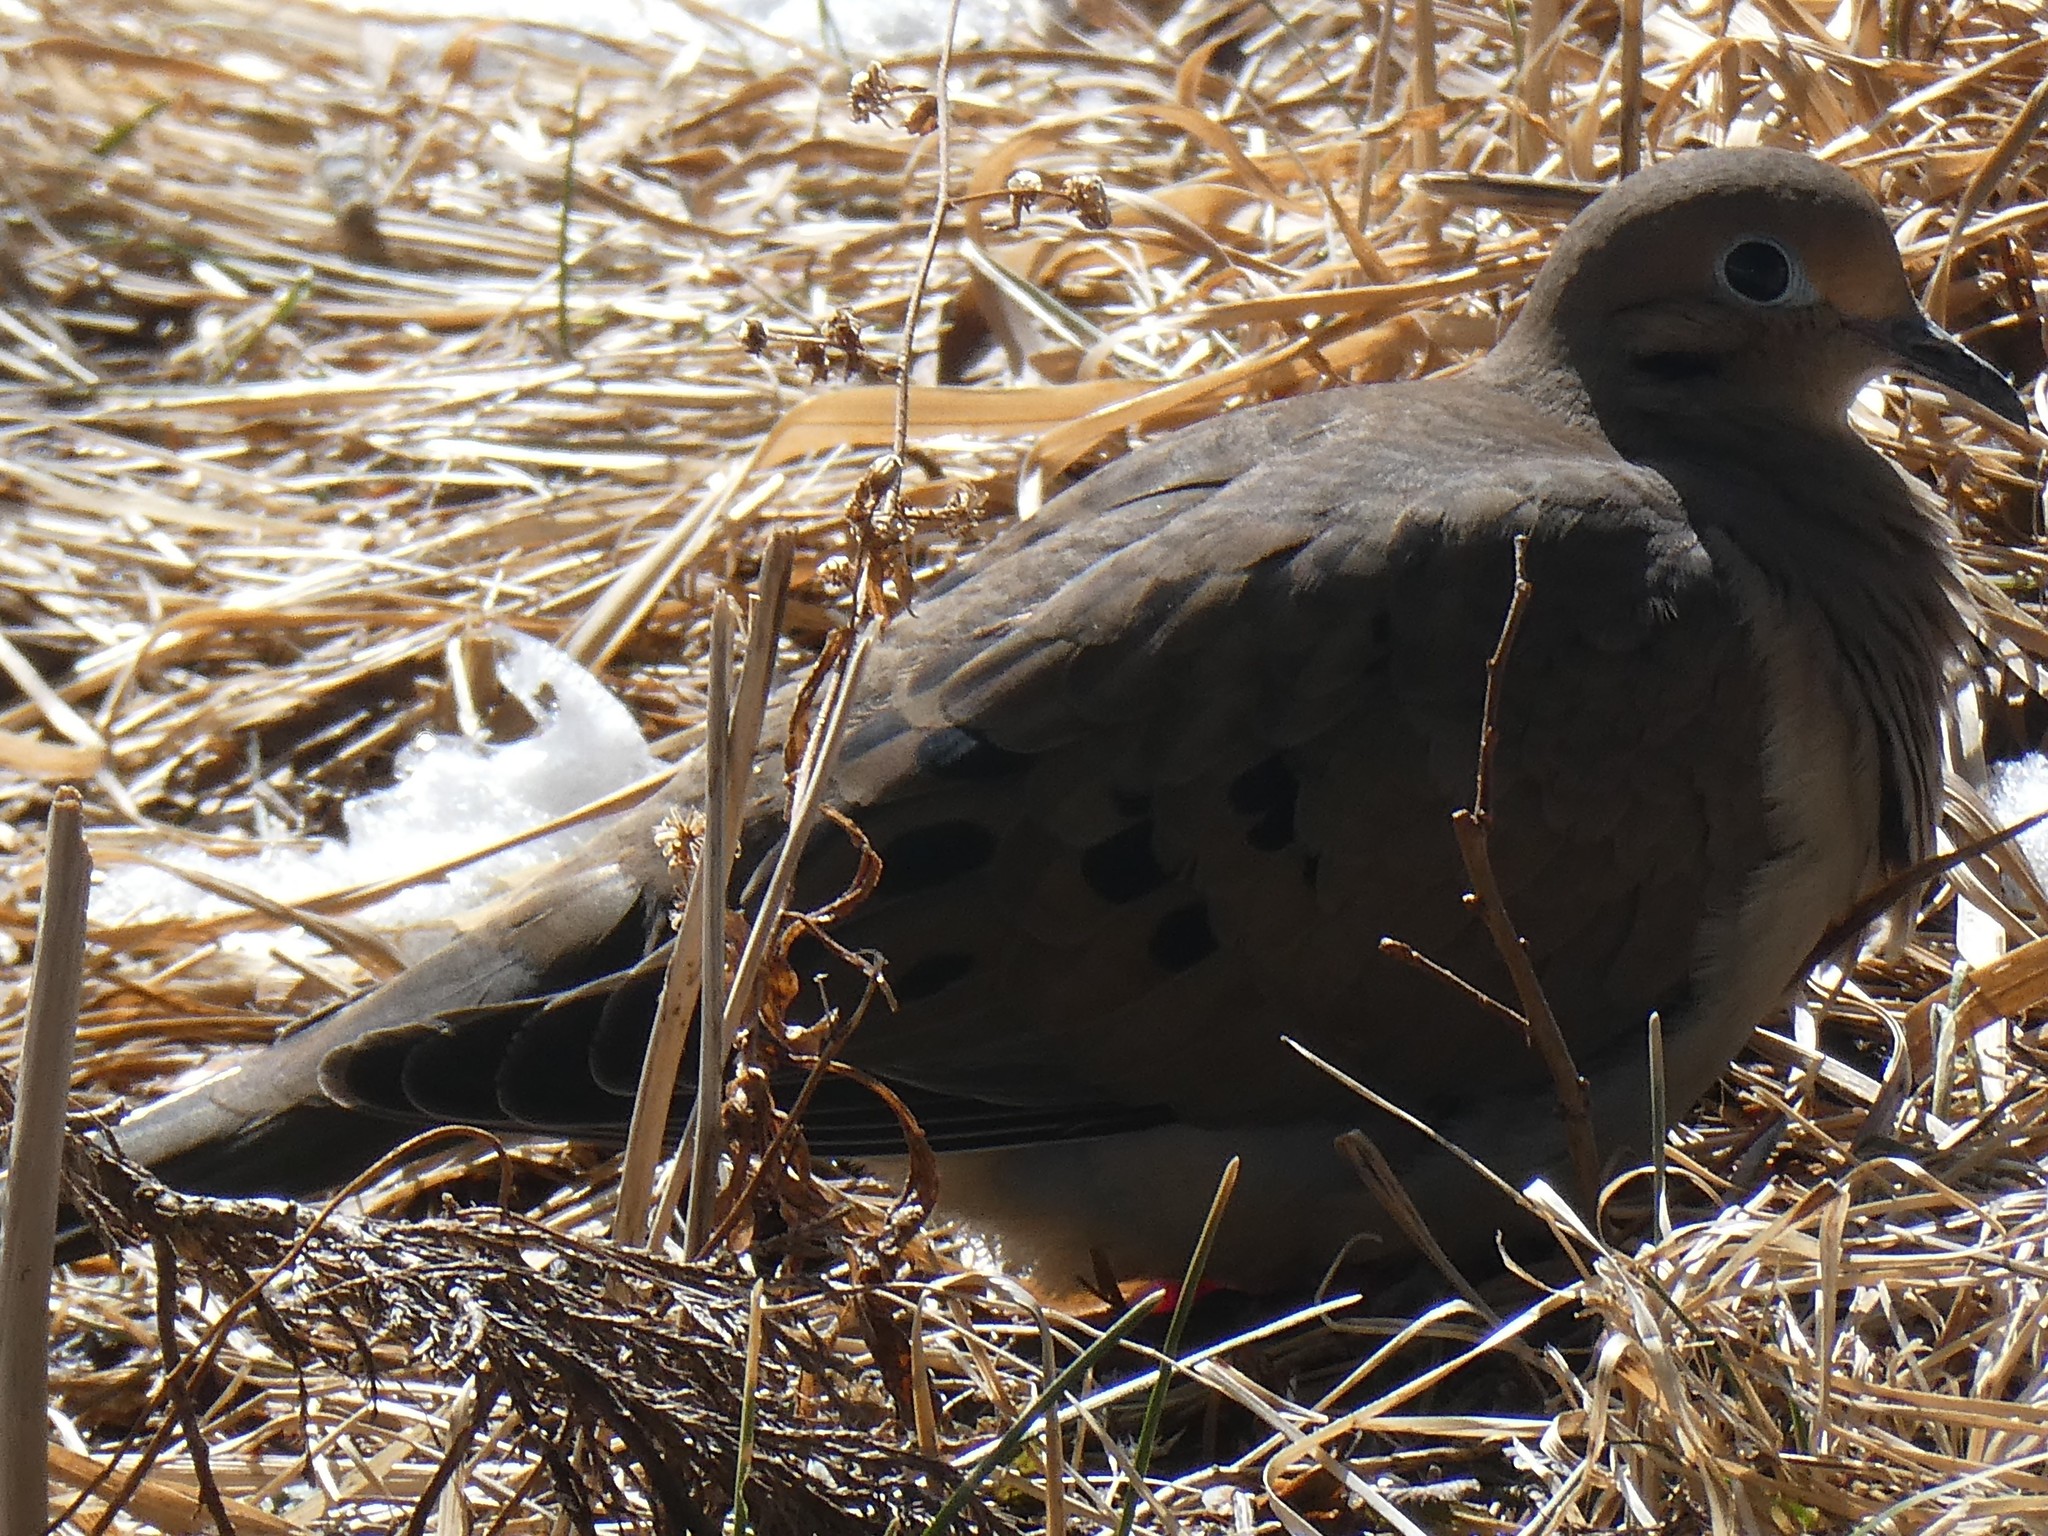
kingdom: Animalia
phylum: Chordata
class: Aves
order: Columbiformes
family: Columbidae
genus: Zenaida
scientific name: Zenaida macroura
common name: Mourning dove
